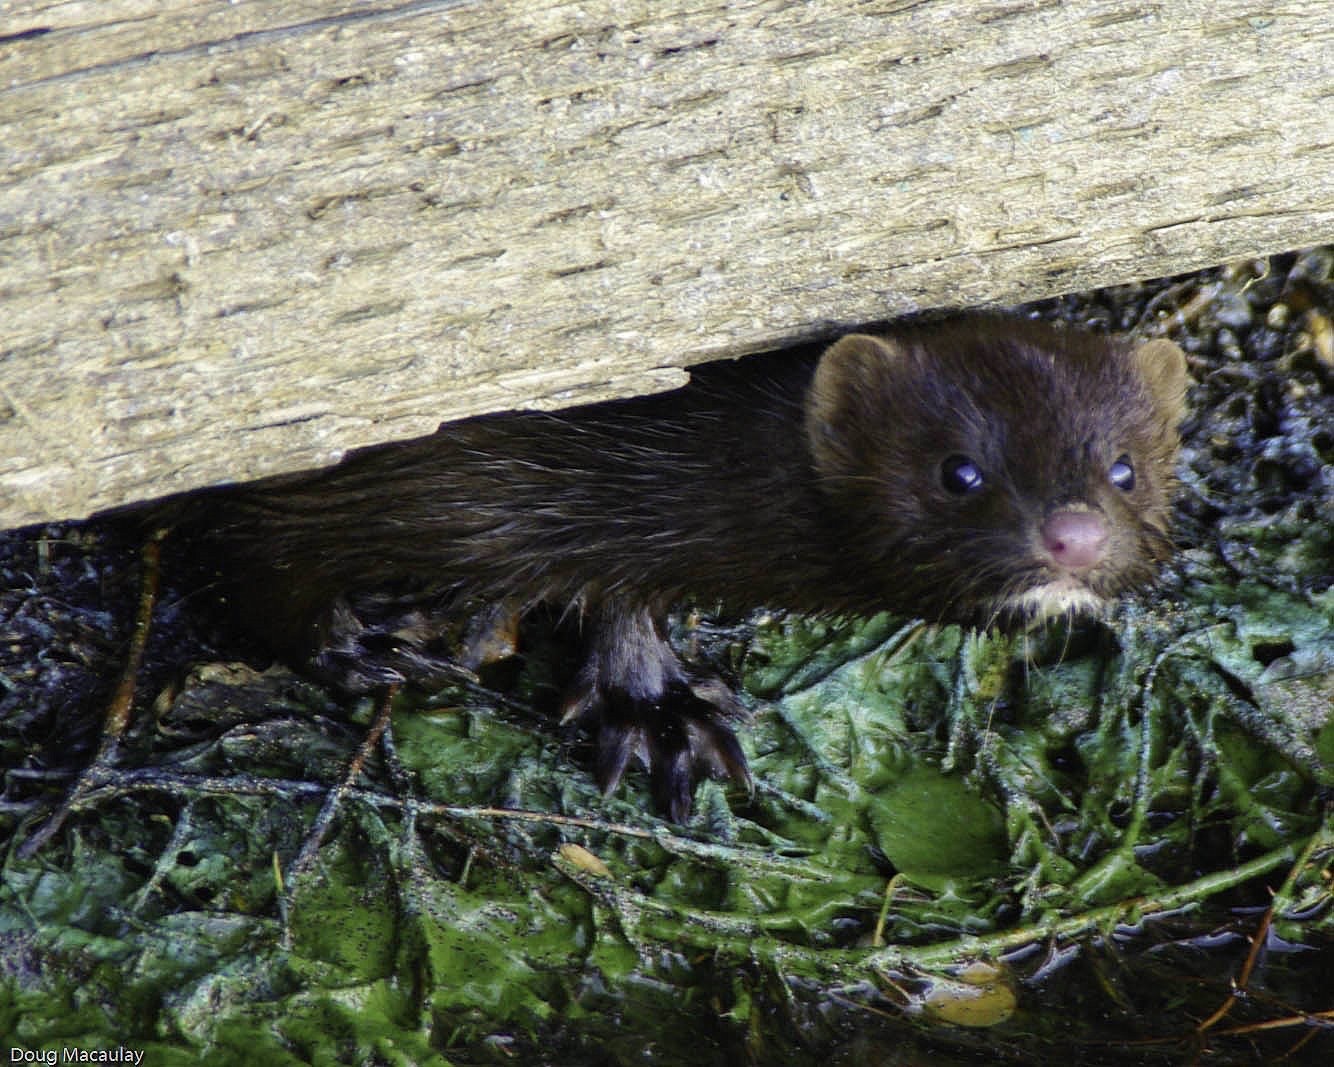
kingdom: Animalia
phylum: Chordata
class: Mammalia
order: Carnivora
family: Mustelidae
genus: Mustela
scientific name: Mustela
